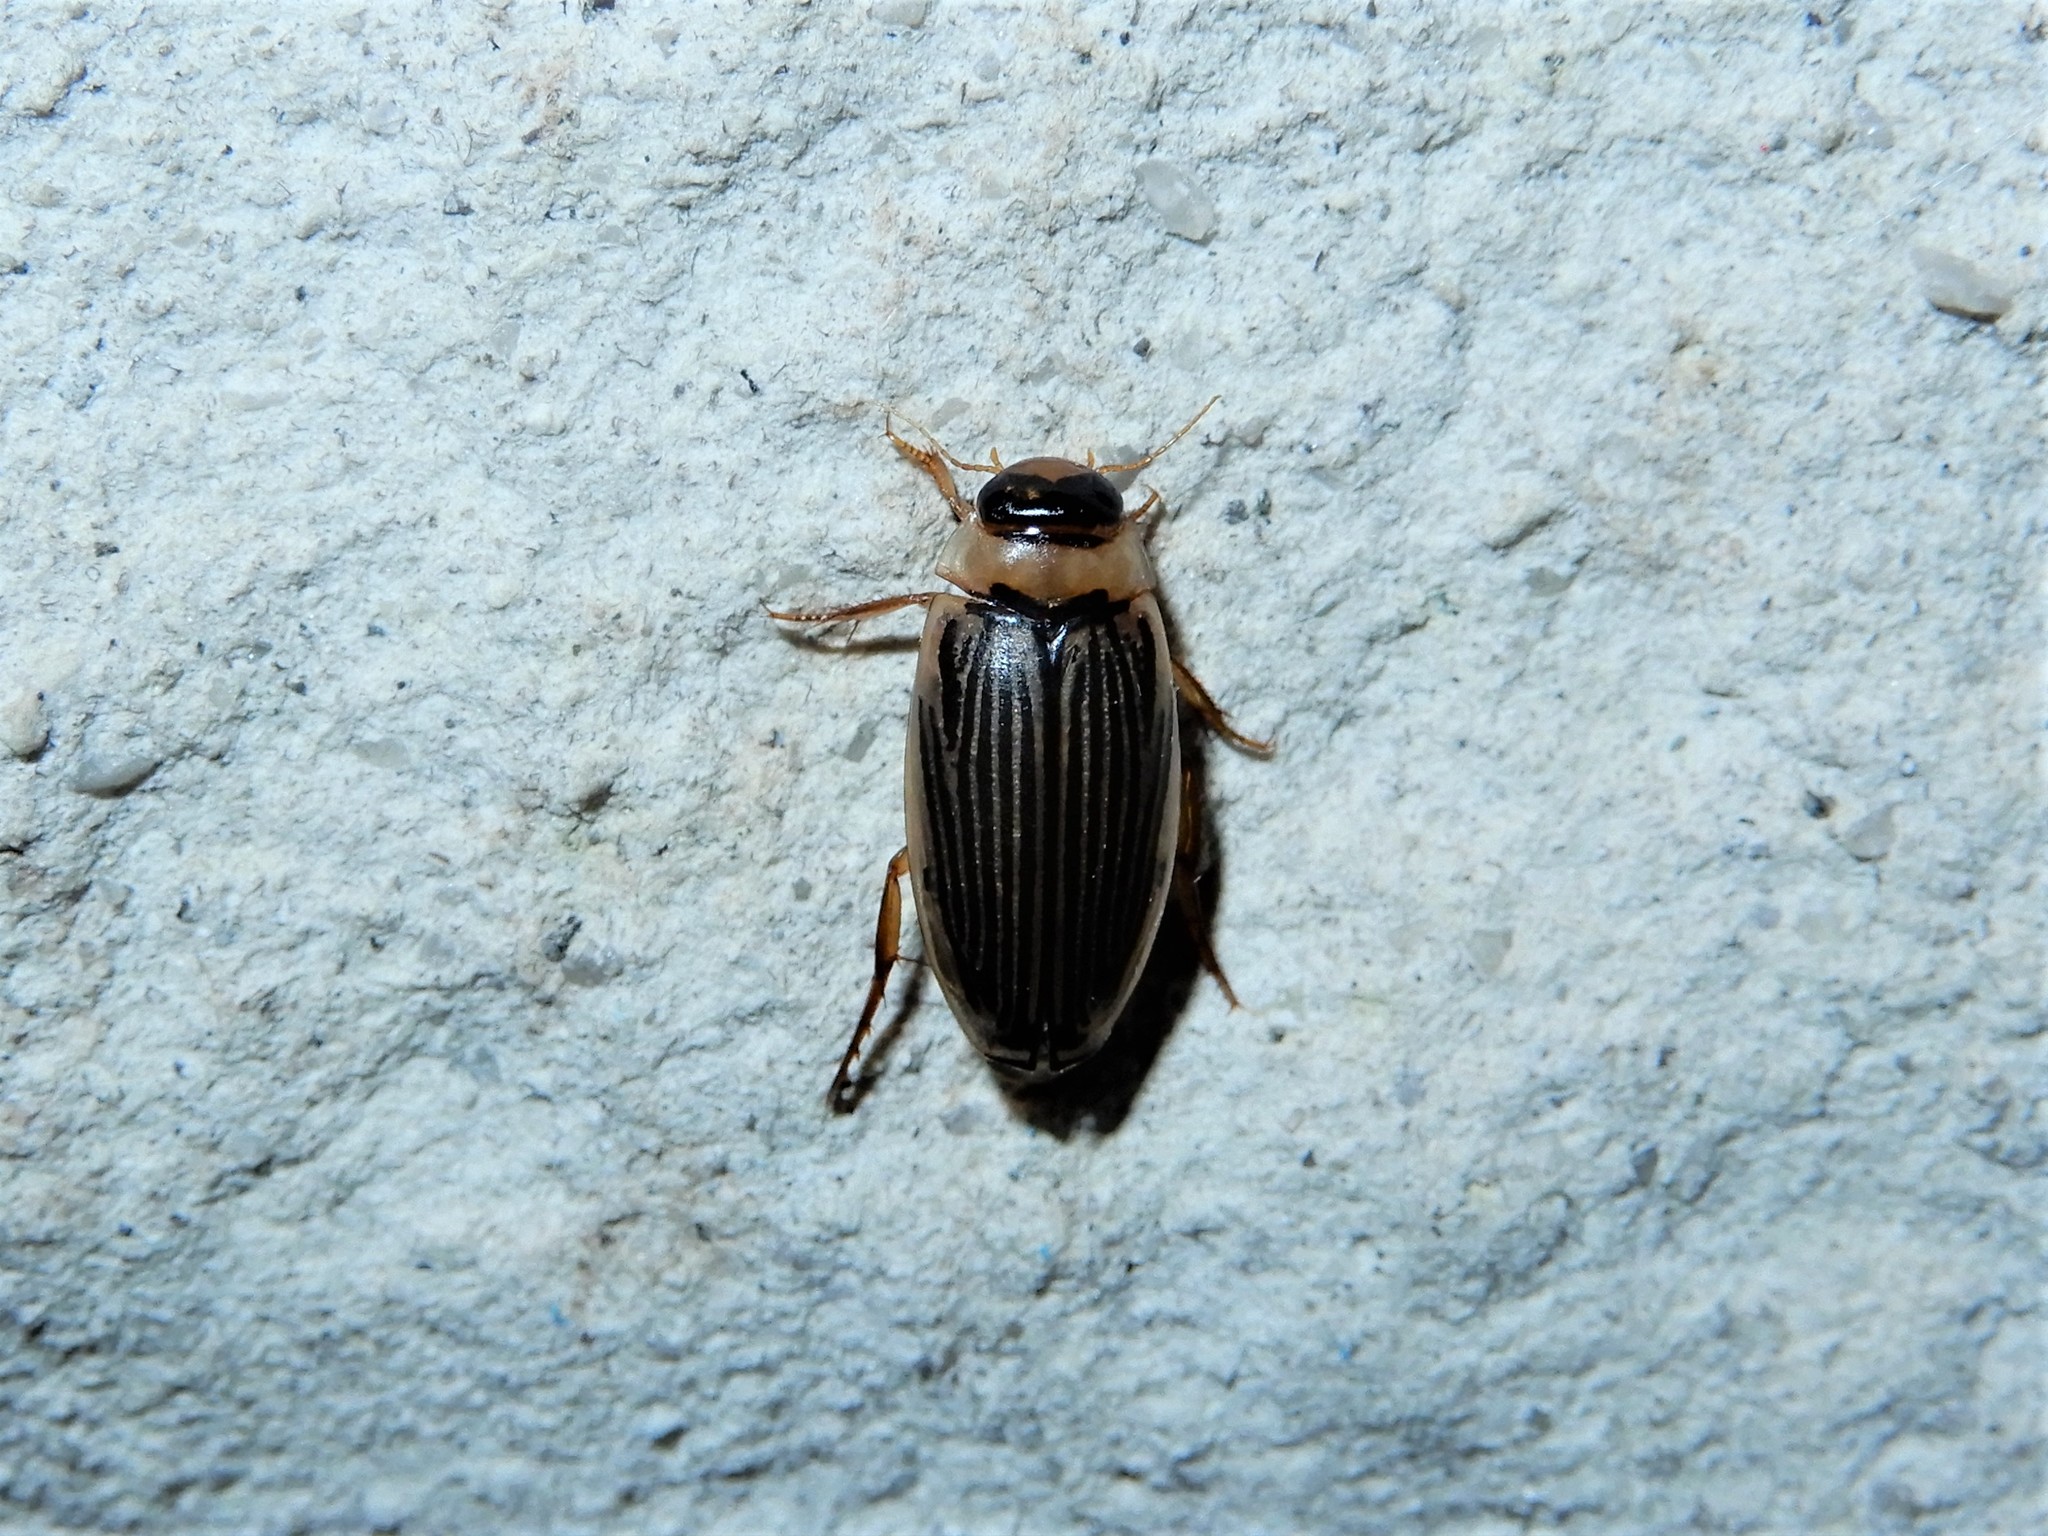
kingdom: Animalia
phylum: Arthropoda
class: Insecta
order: Coleoptera
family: Dytiscidae
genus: Lancetes
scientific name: Lancetes lanceolatus
